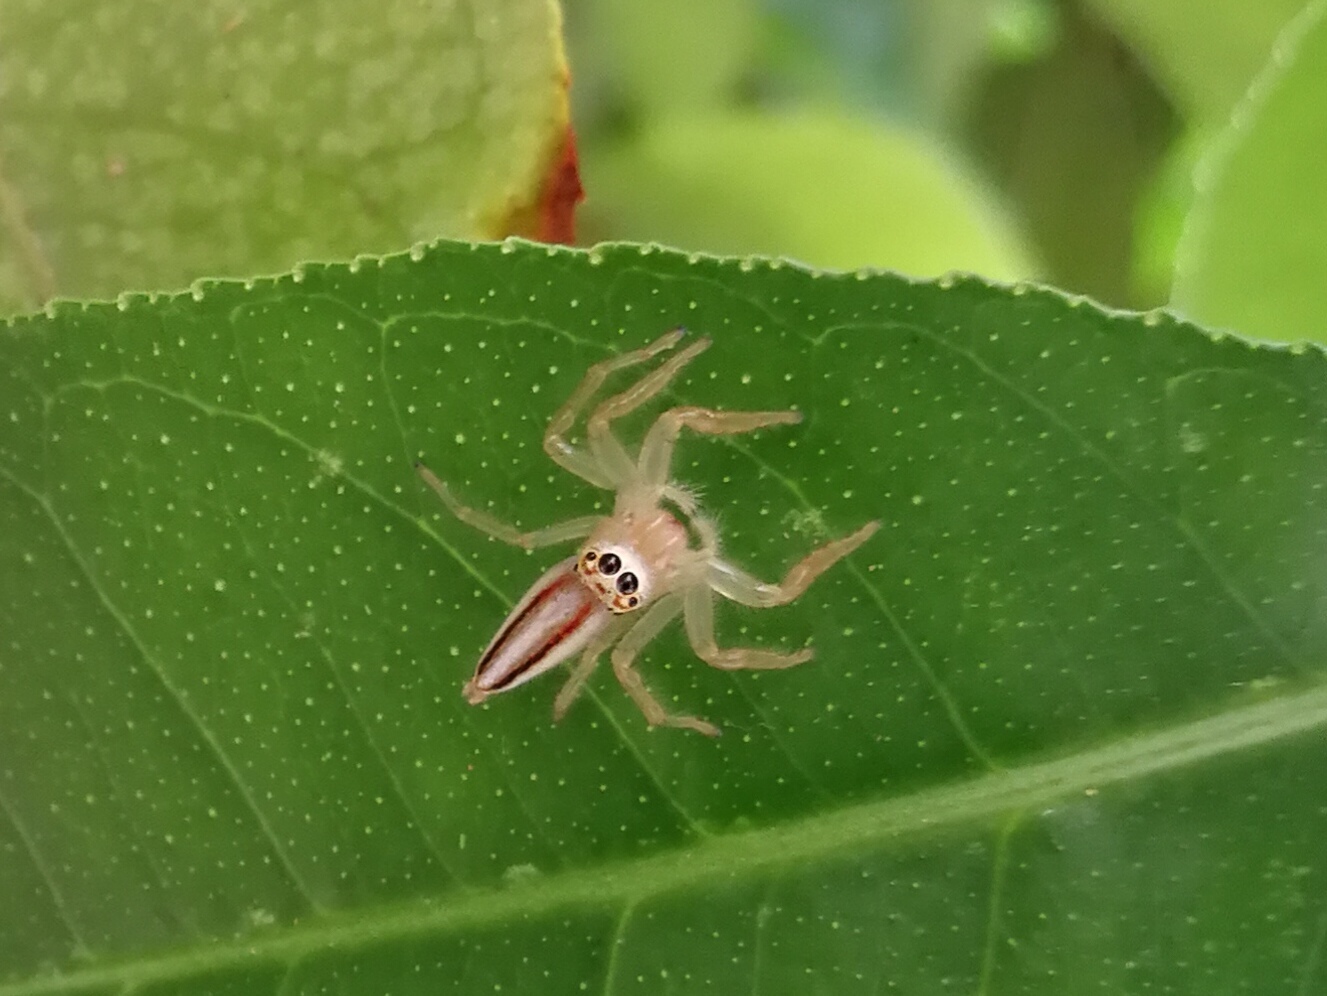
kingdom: Animalia
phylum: Arthropoda
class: Arachnida
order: Araneae
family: Salticidae
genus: Telamonia
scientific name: Telamonia dimidiata
